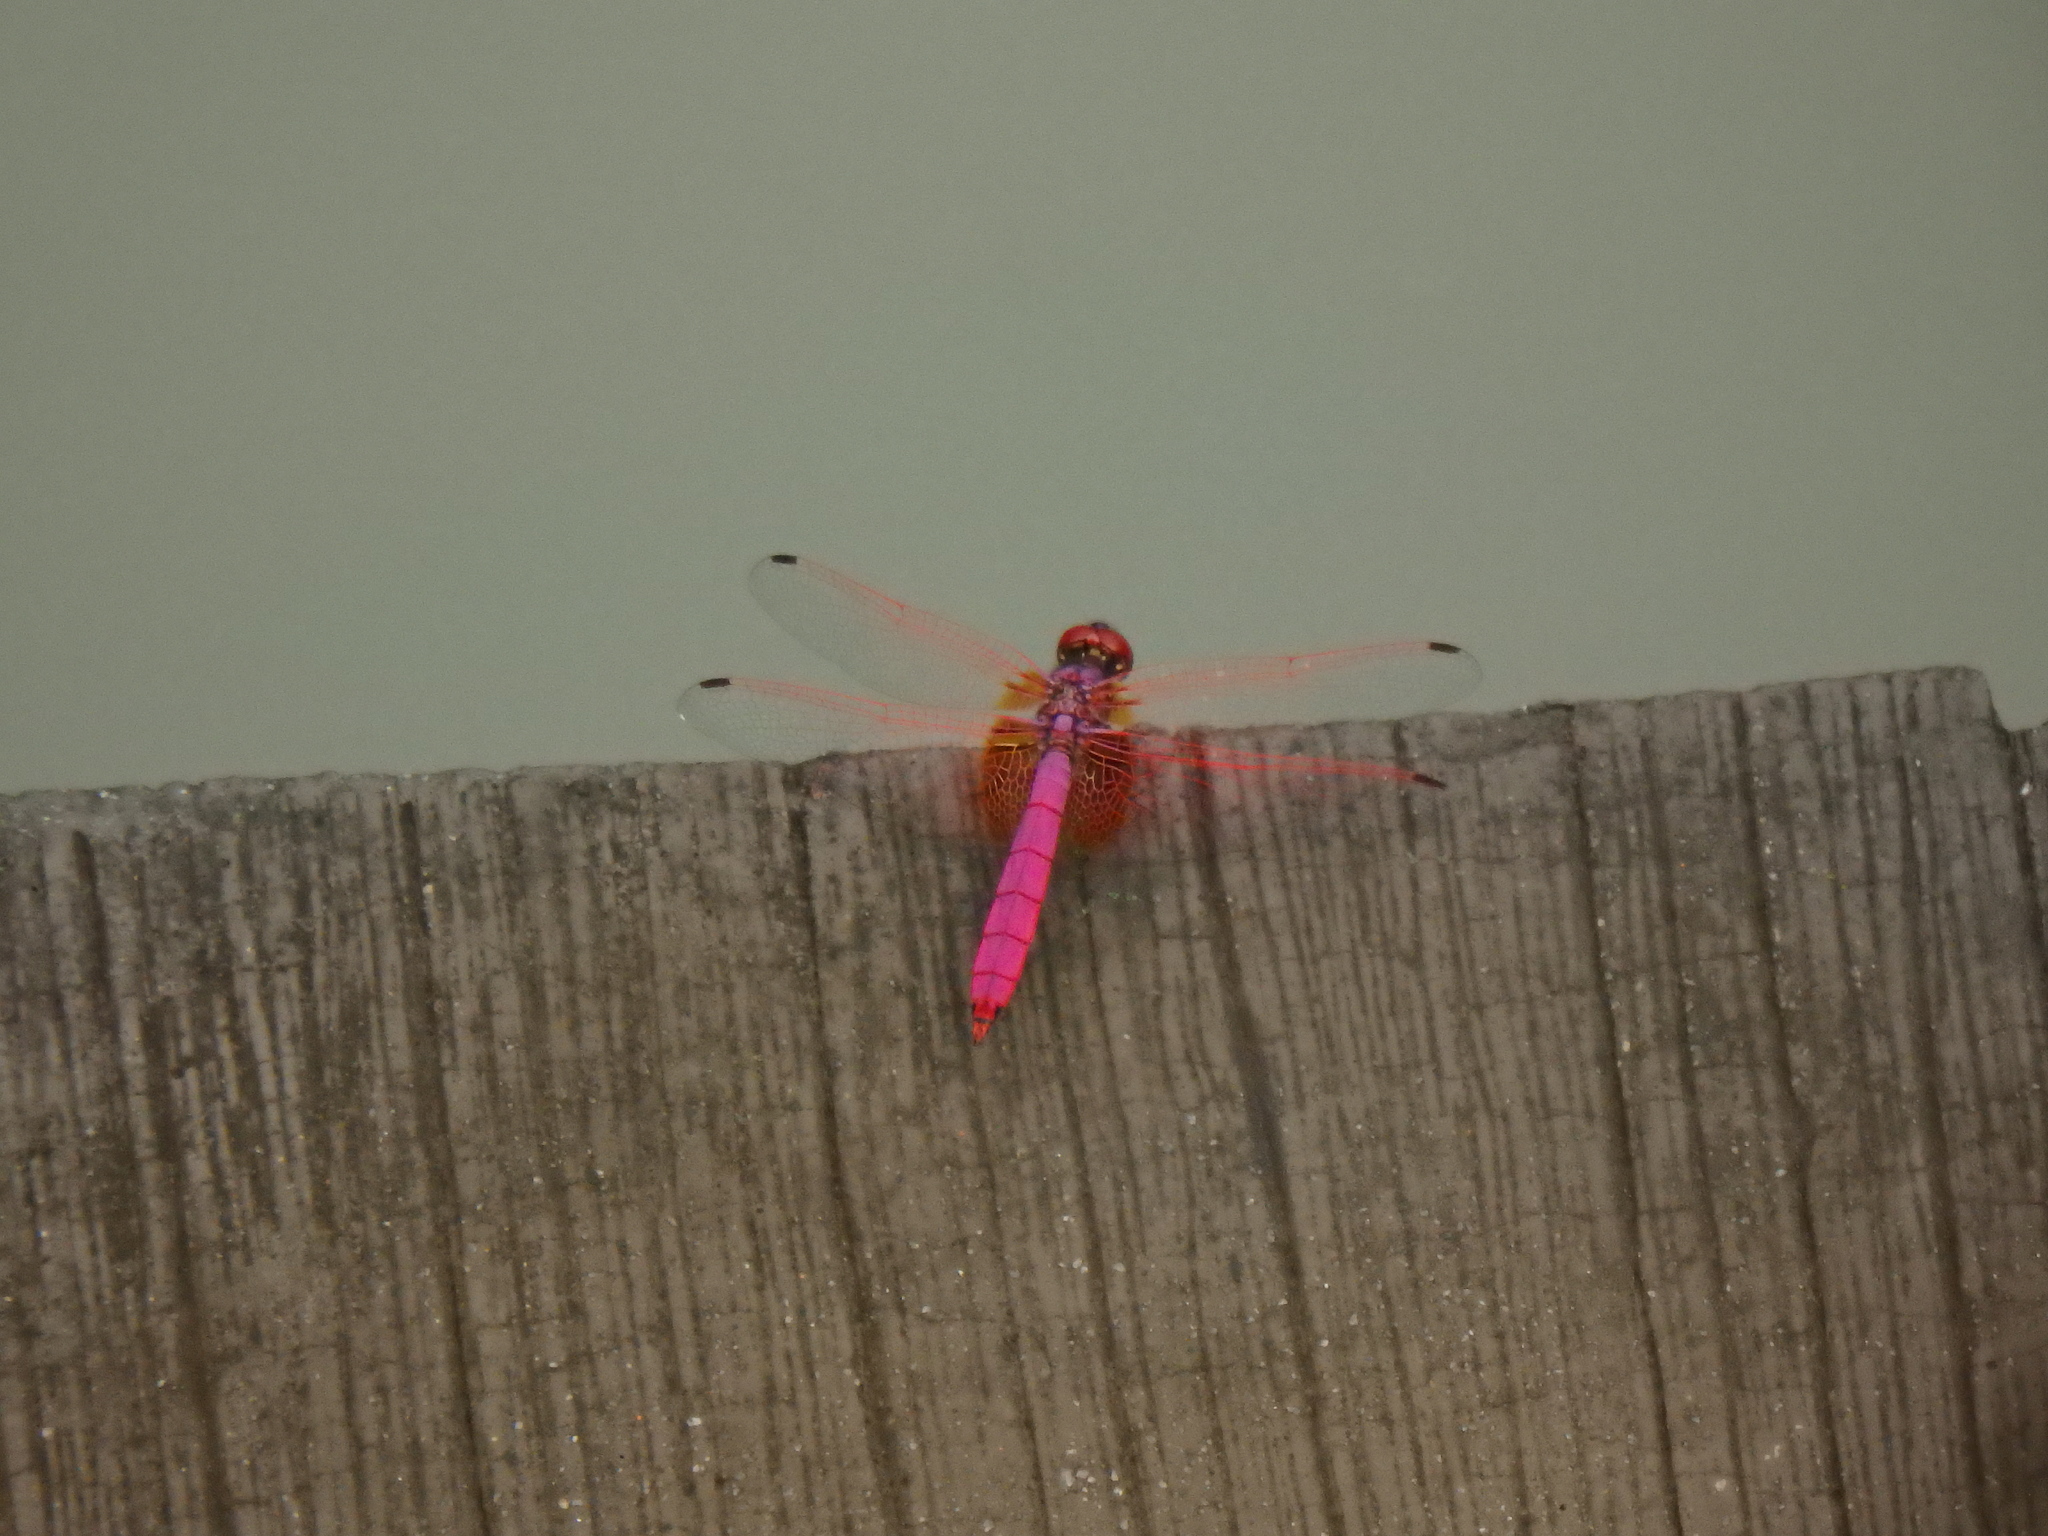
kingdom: Animalia
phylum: Arthropoda
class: Insecta
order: Odonata
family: Libellulidae
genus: Trithemis
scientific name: Trithemis aurora
